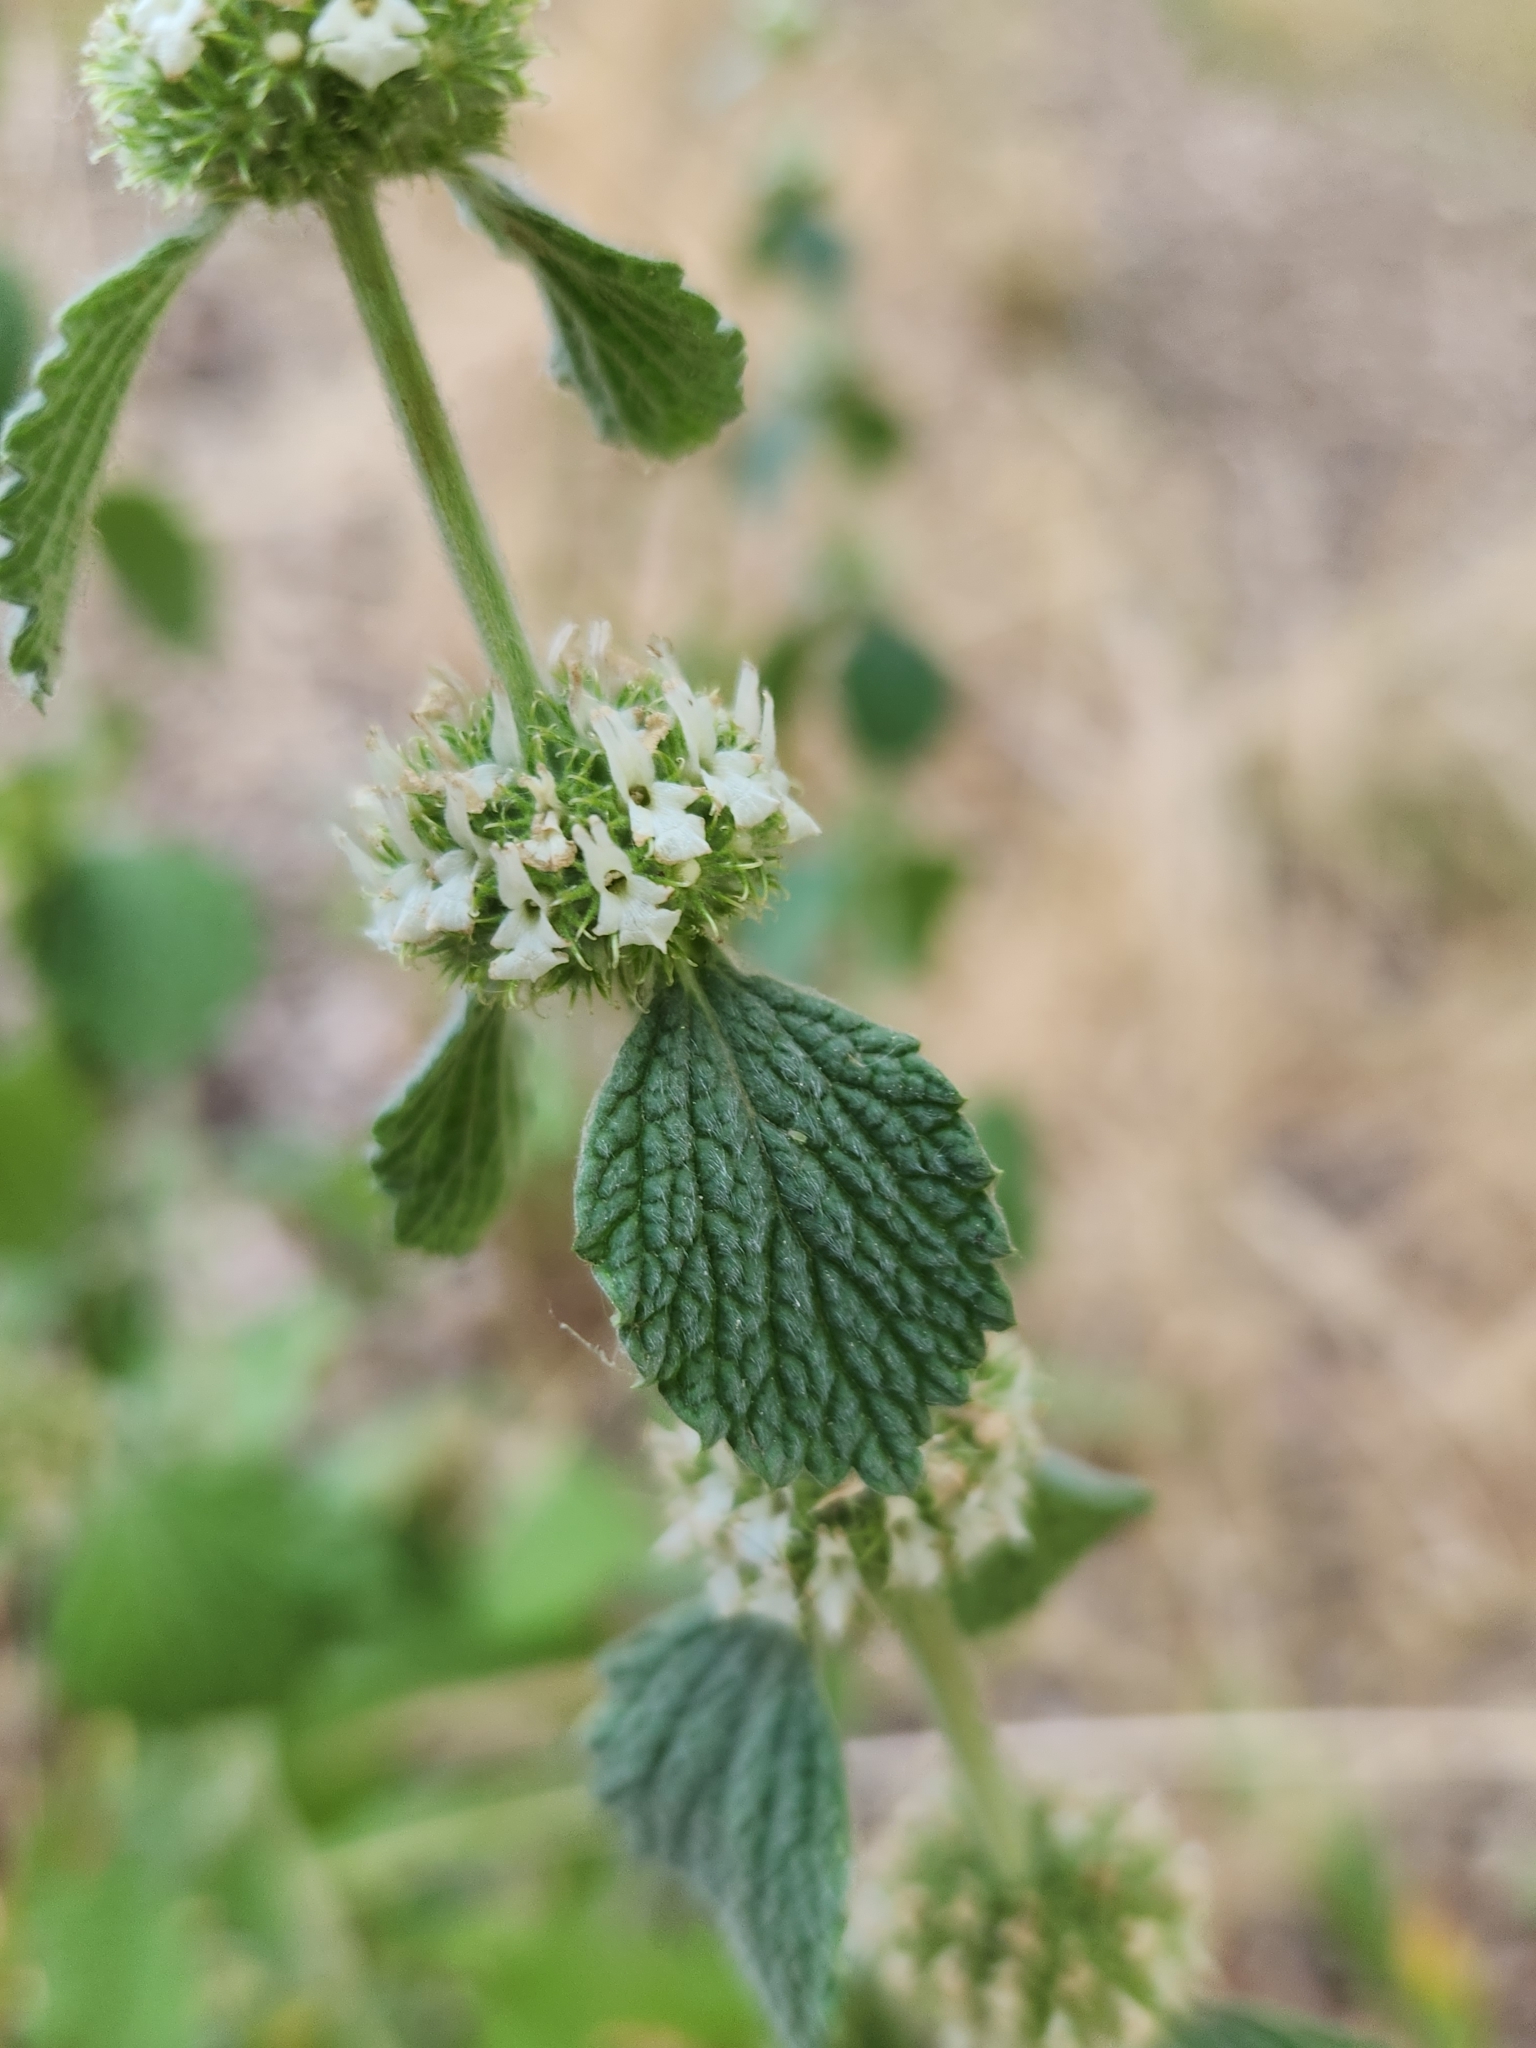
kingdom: Plantae
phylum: Tracheophyta
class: Magnoliopsida
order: Lamiales
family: Lamiaceae
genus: Marrubium
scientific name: Marrubium vulgare
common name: Horehound
